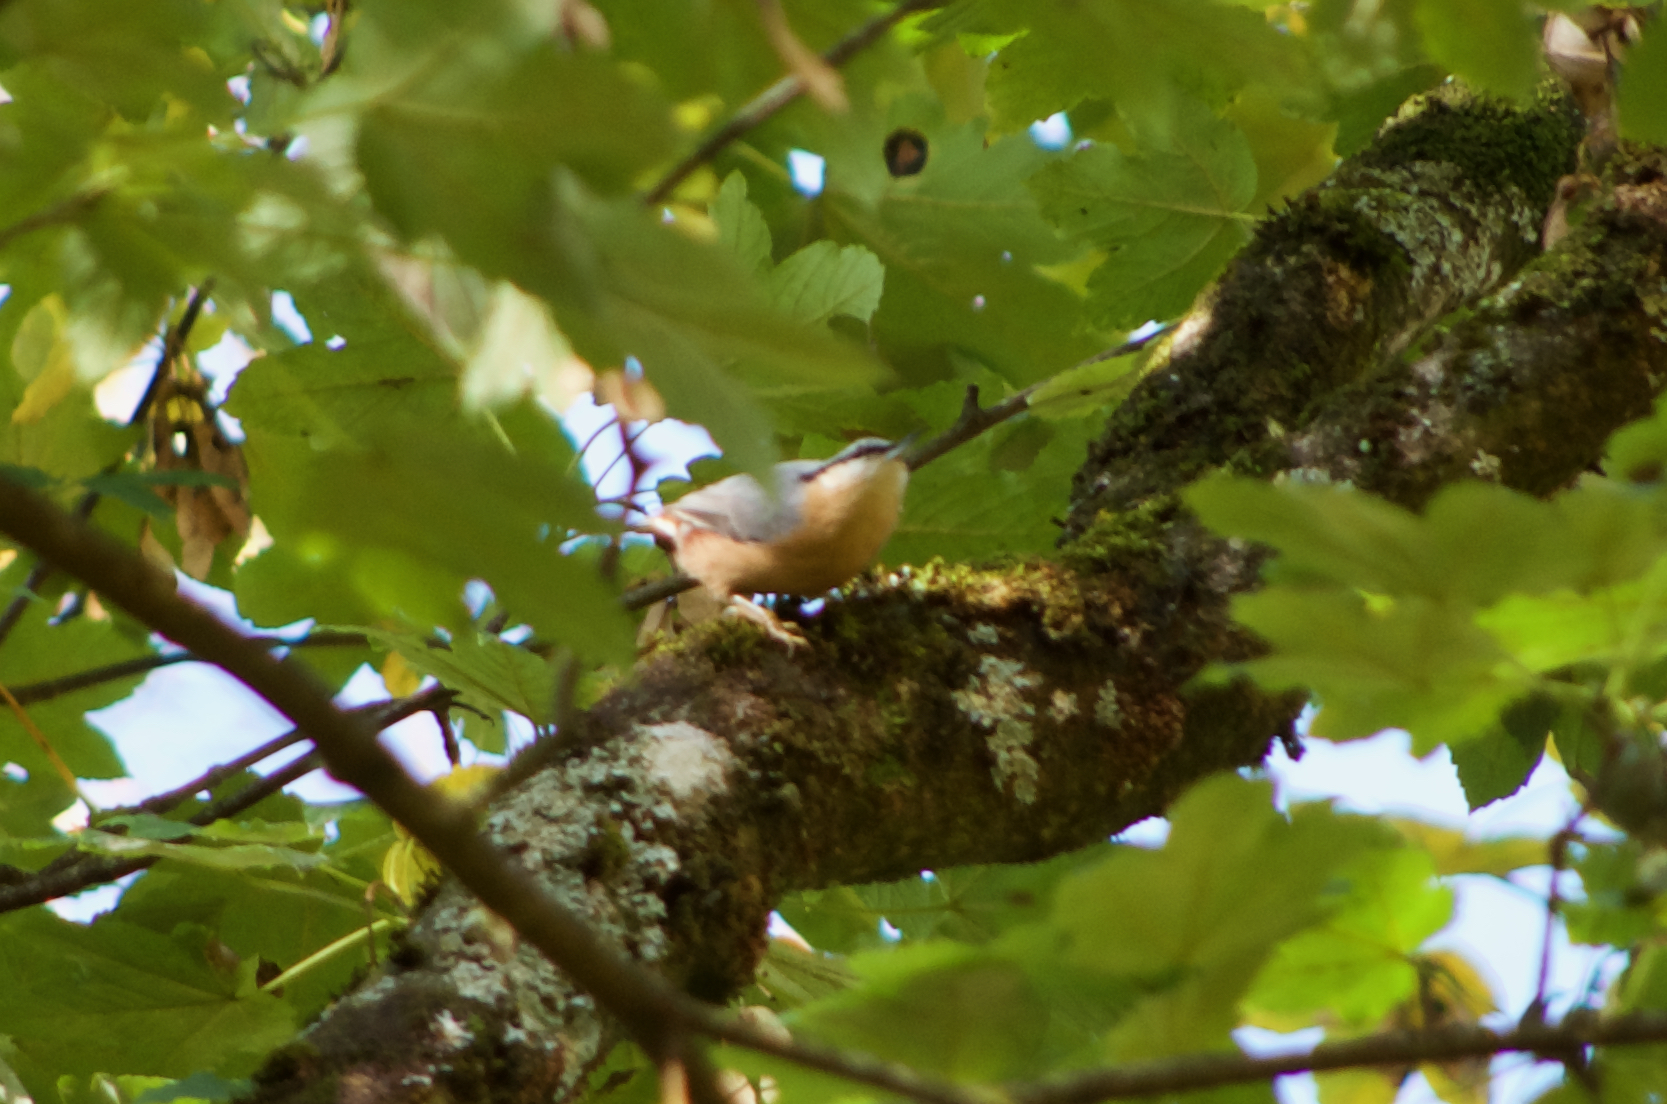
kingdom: Animalia
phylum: Chordata
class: Aves
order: Passeriformes
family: Sittidae
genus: Sitta
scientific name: Sitta europaea
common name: Eurasian nuthatch
